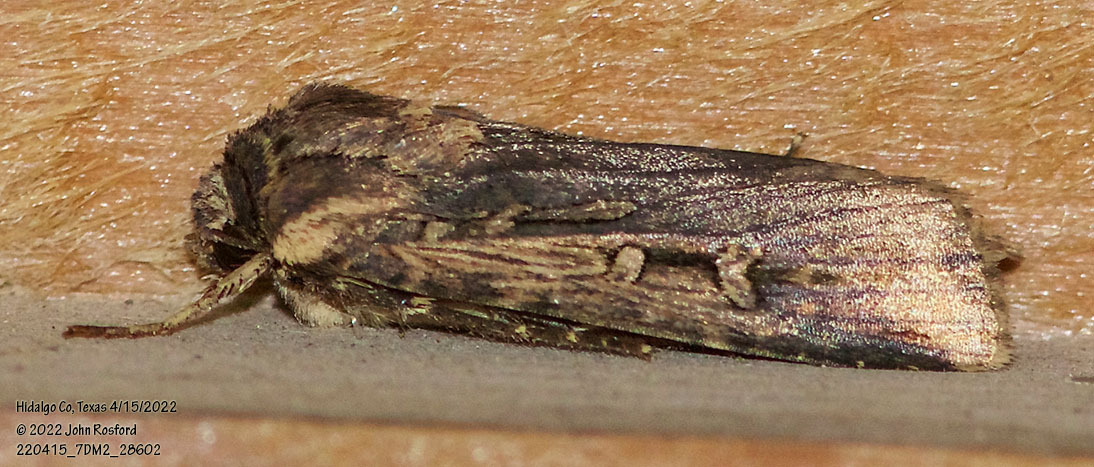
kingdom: Animalia
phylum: Arthropoda
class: Insecta
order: Lepidoptera
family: Noctuidae
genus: Feltia
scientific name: Feltia subterranea
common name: Granulate cutworm
